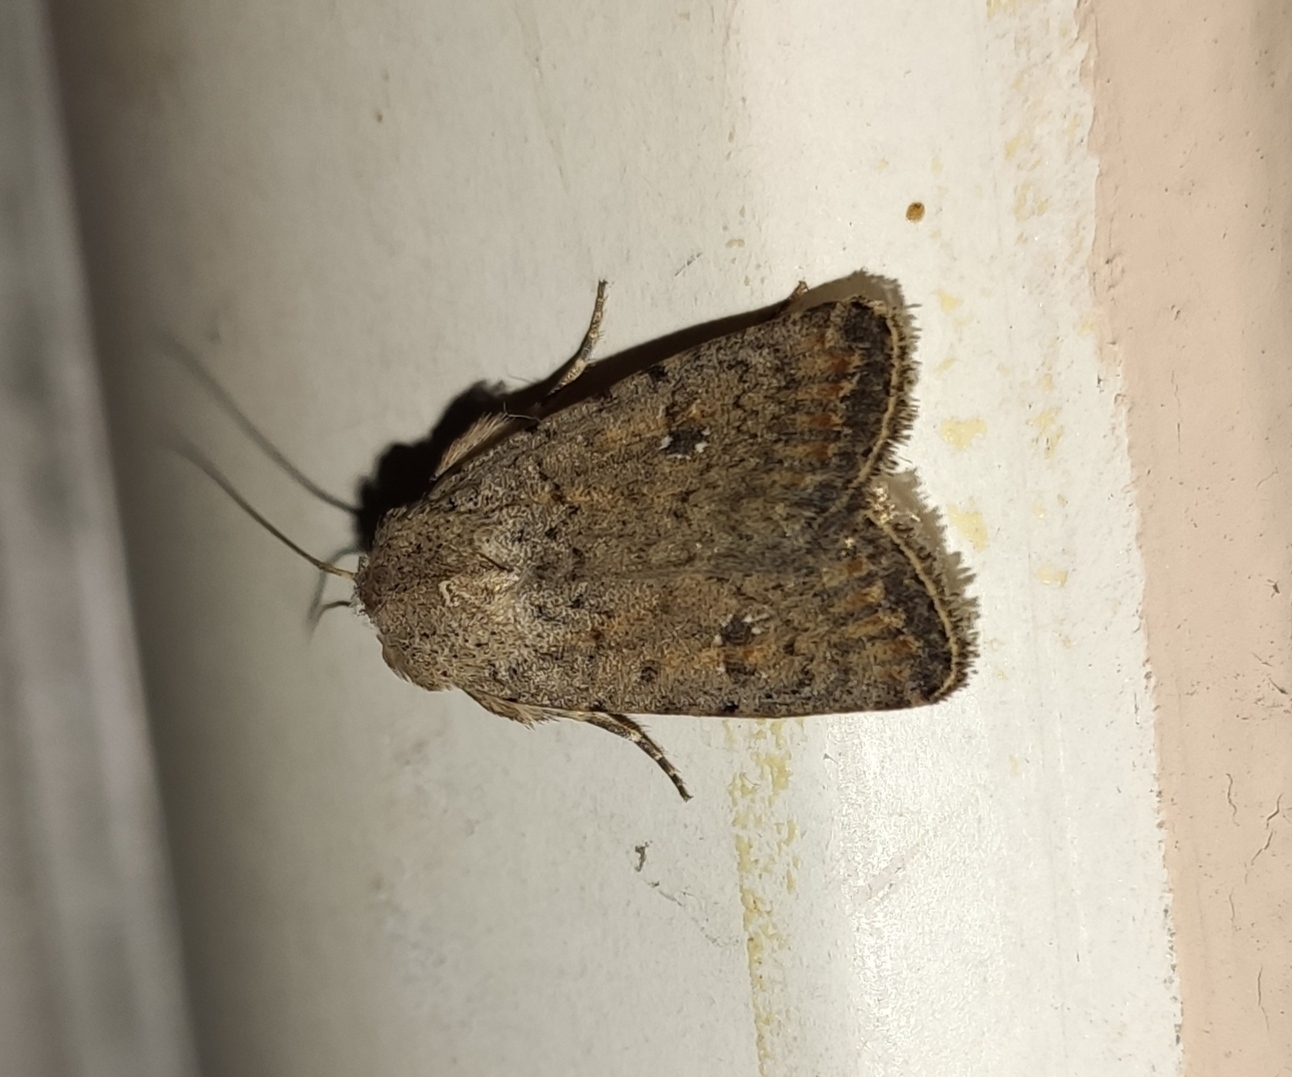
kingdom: Animalia
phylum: Arthropoda
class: Insecta
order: Lepidoptera
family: Noctuidae
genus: Caradrina
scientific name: Caradrina clavipalpis
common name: Pale mottled willow
